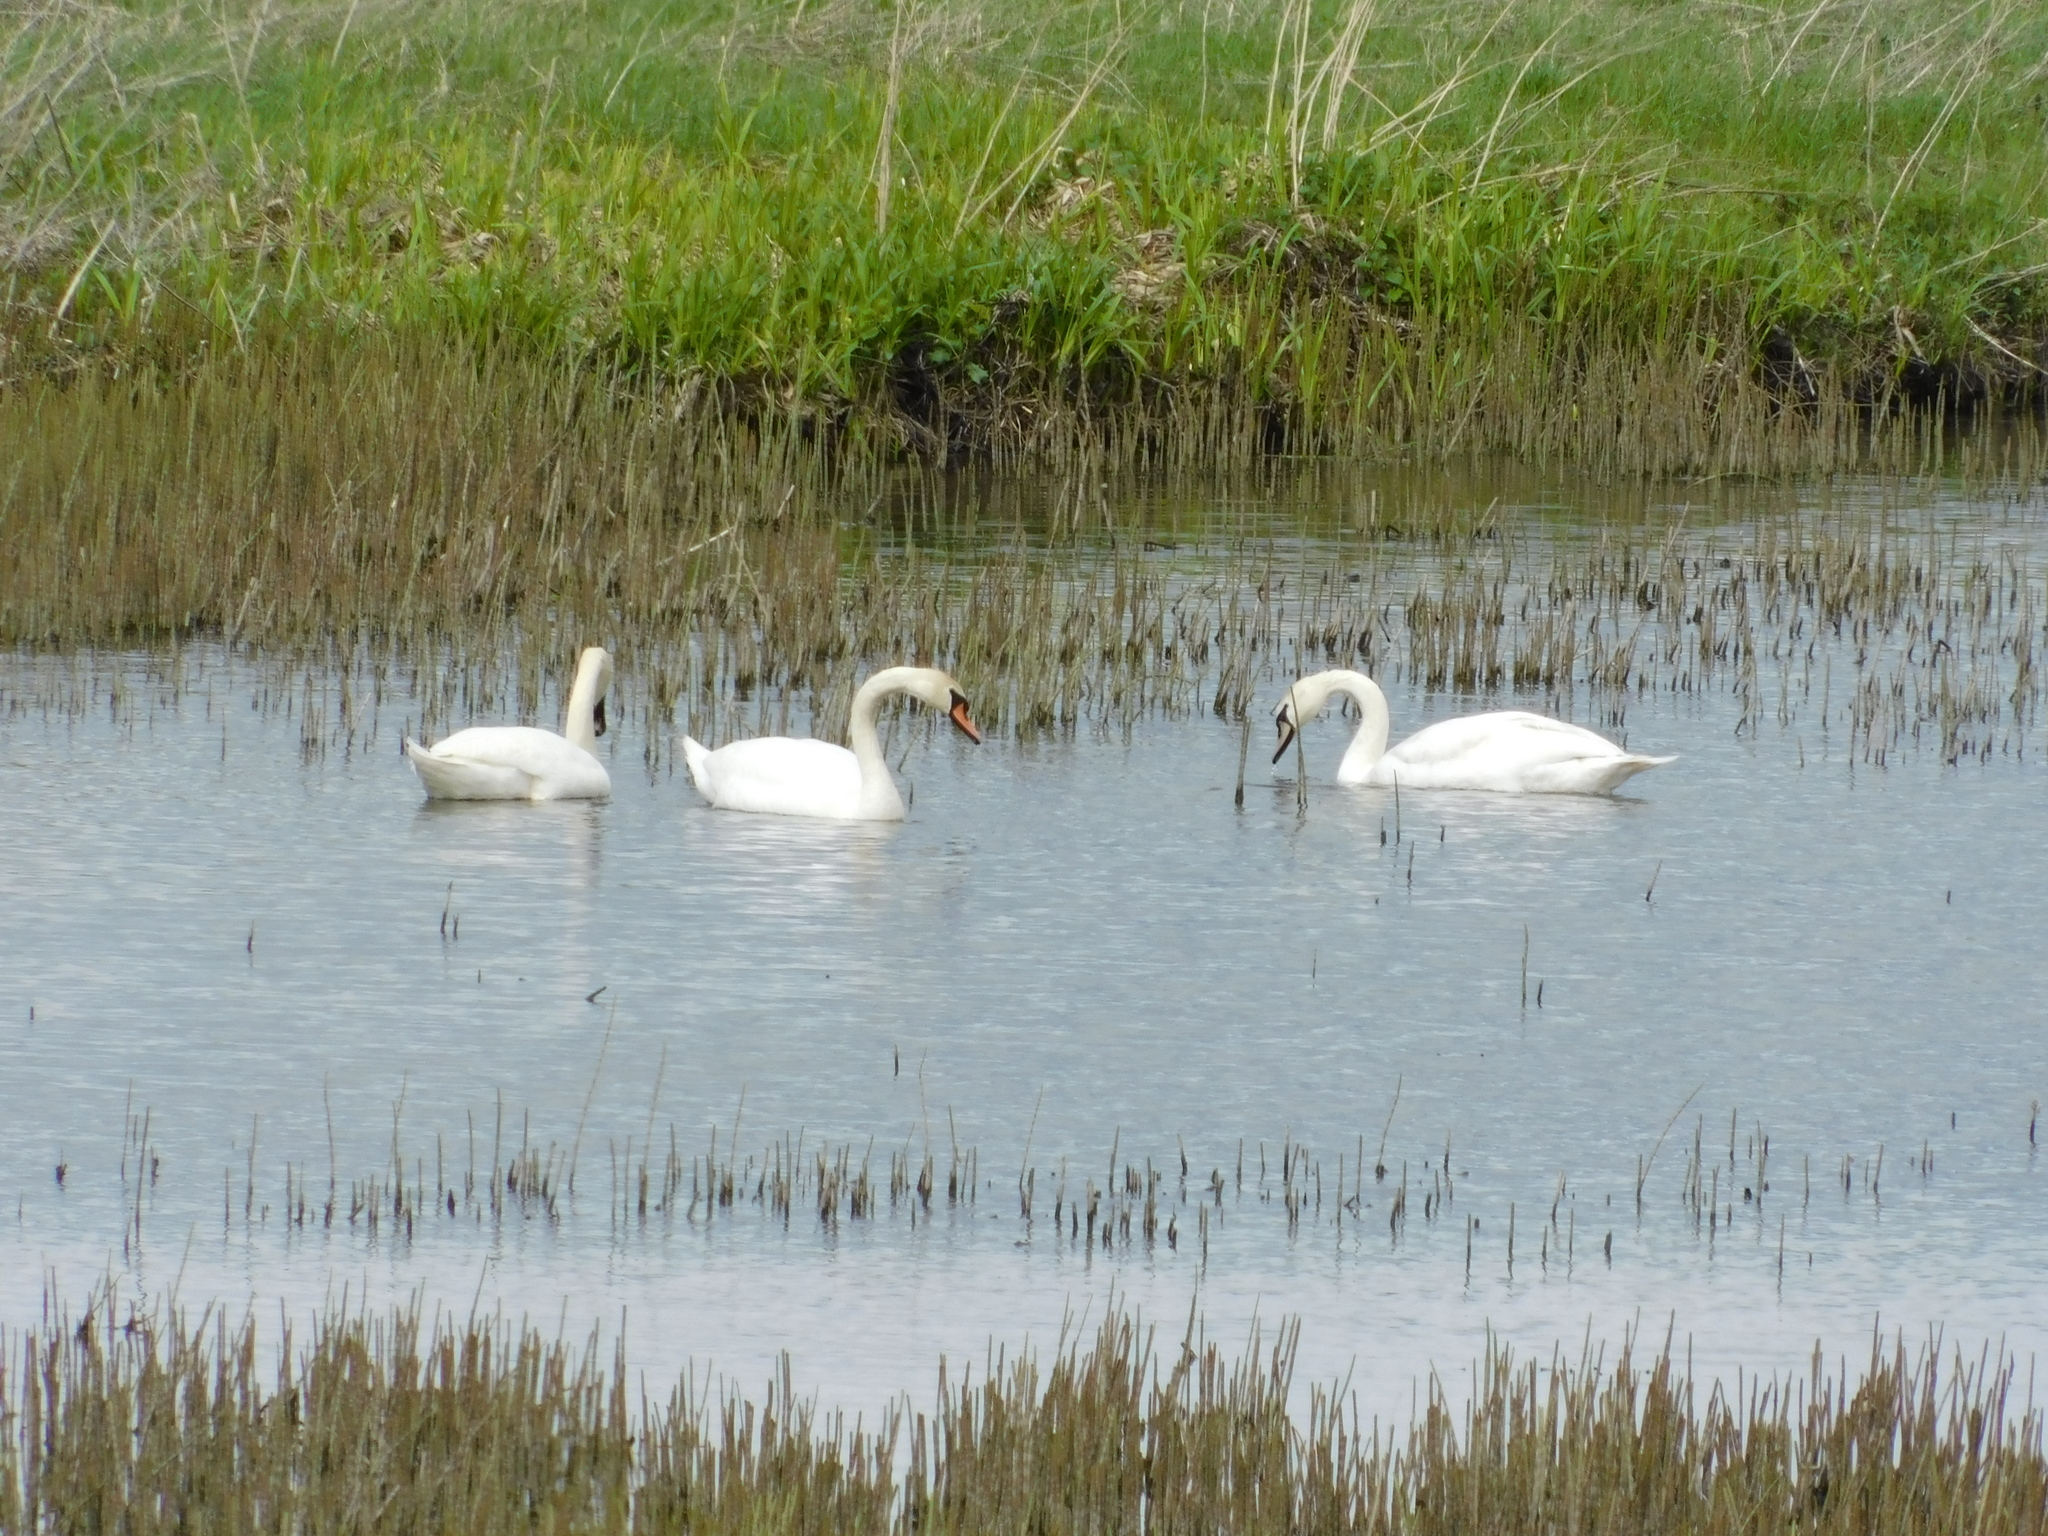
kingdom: Animalia
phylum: Chordata
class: Aves
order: Anseriformes
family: Anatidae
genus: Cygnus
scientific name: Cygnus olor
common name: Mute swan
